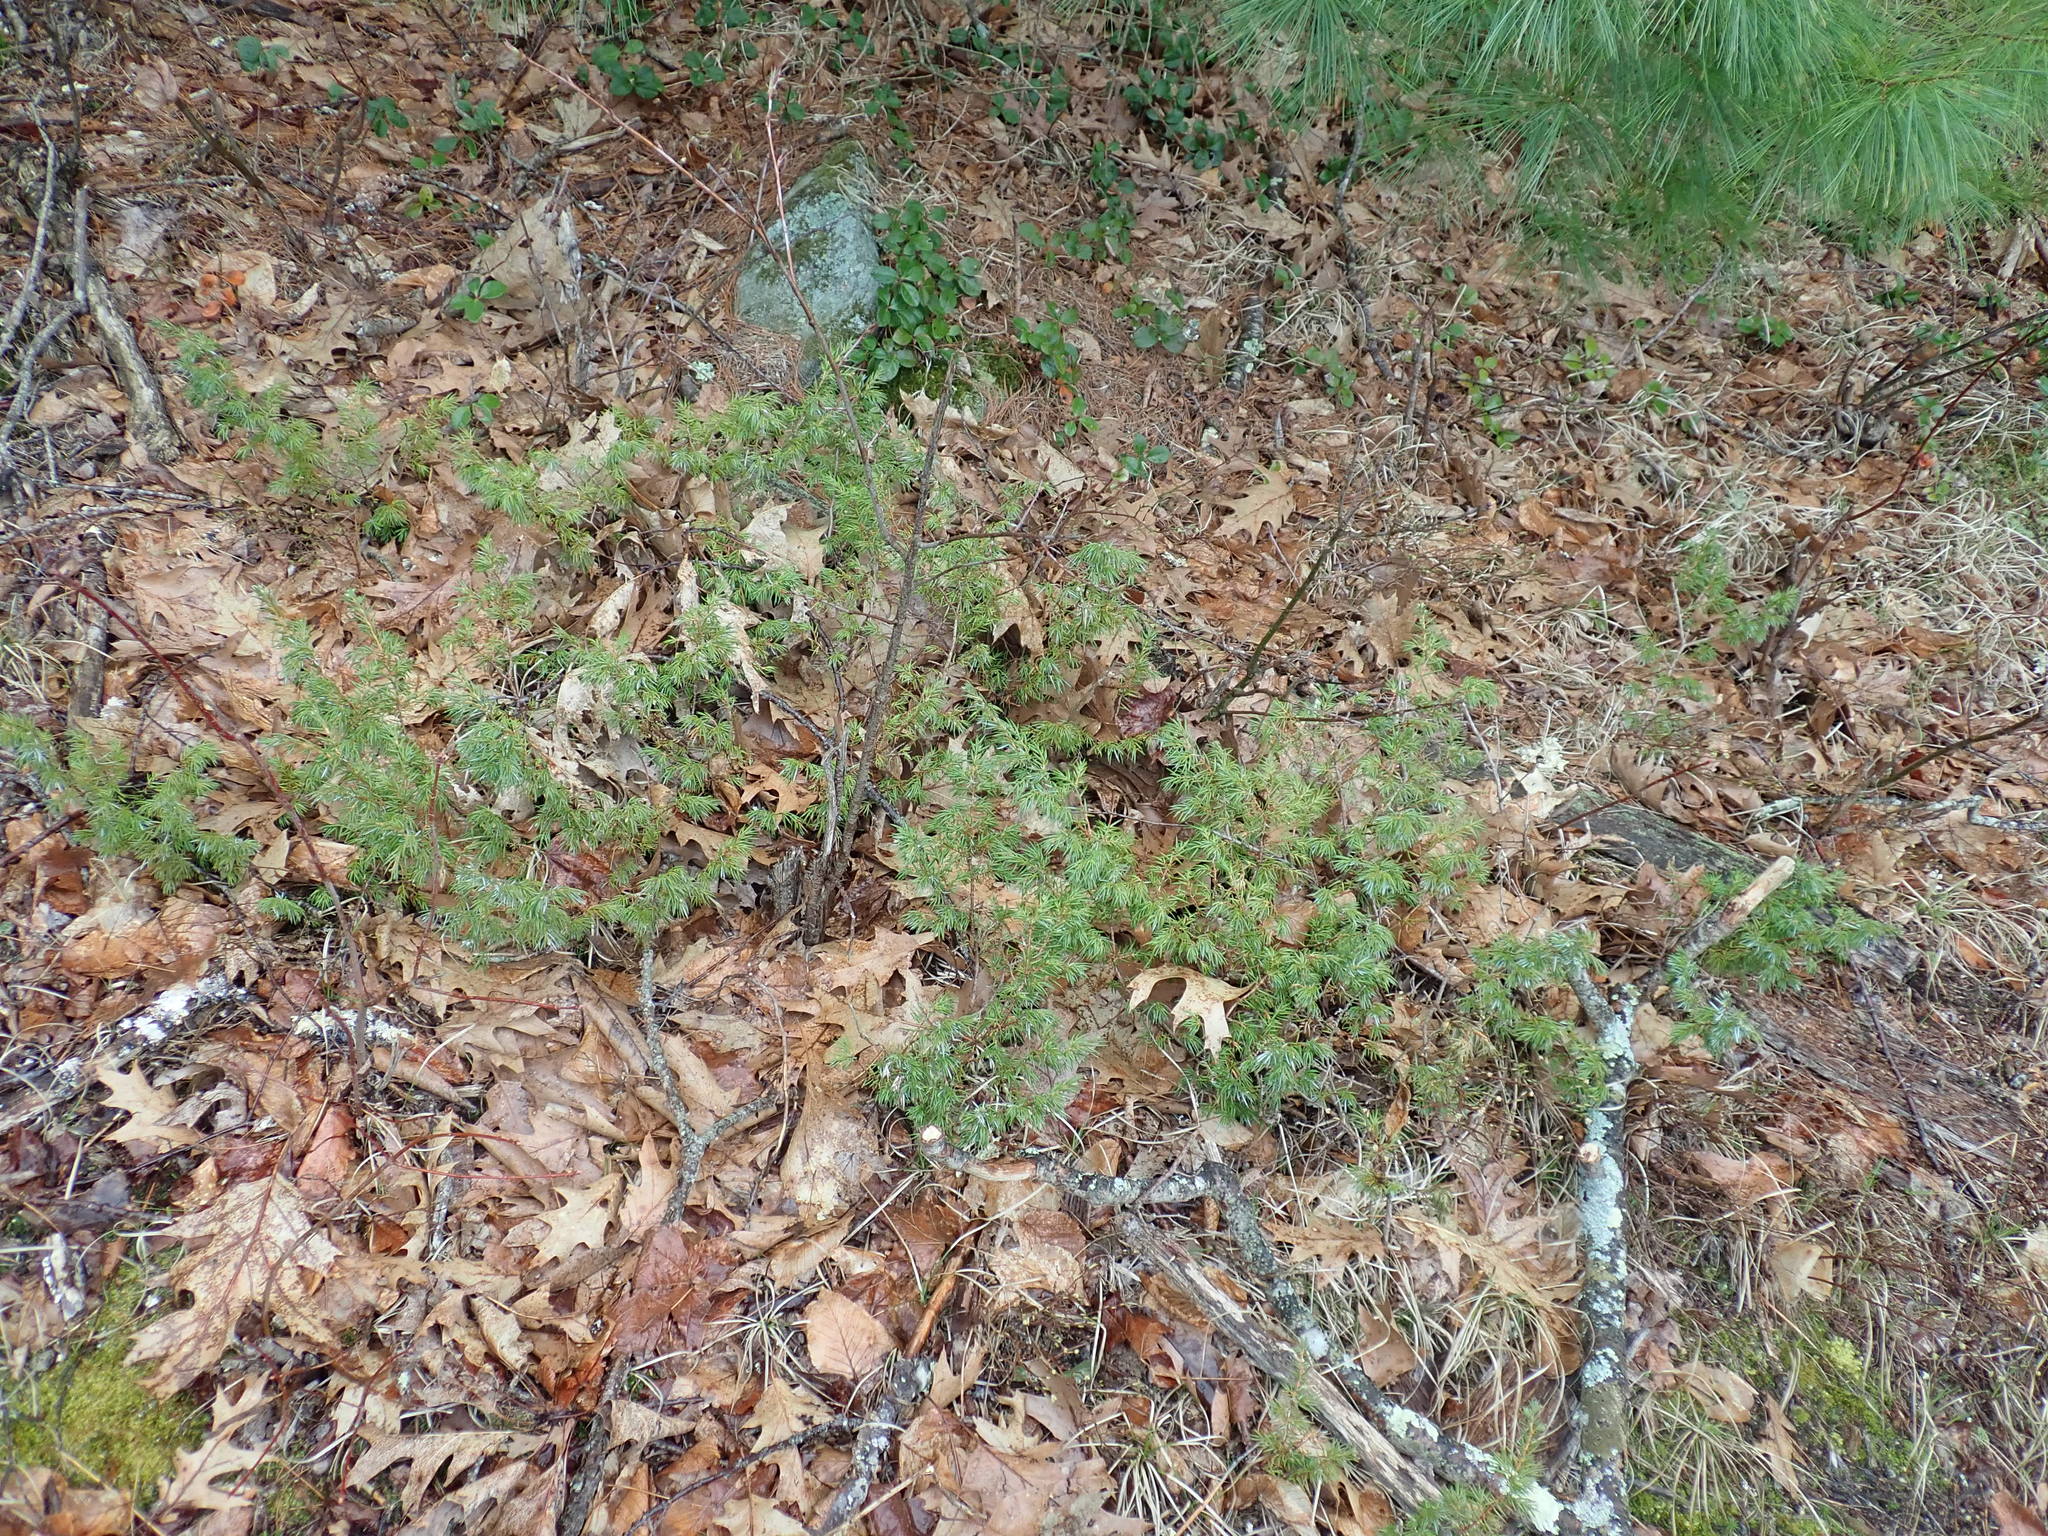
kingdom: Plantae
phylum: Tracheophyta
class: Pinopsida
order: Pinales
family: Cupressaceae
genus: Juniperus
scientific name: Juniperus communis
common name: Common juniper
